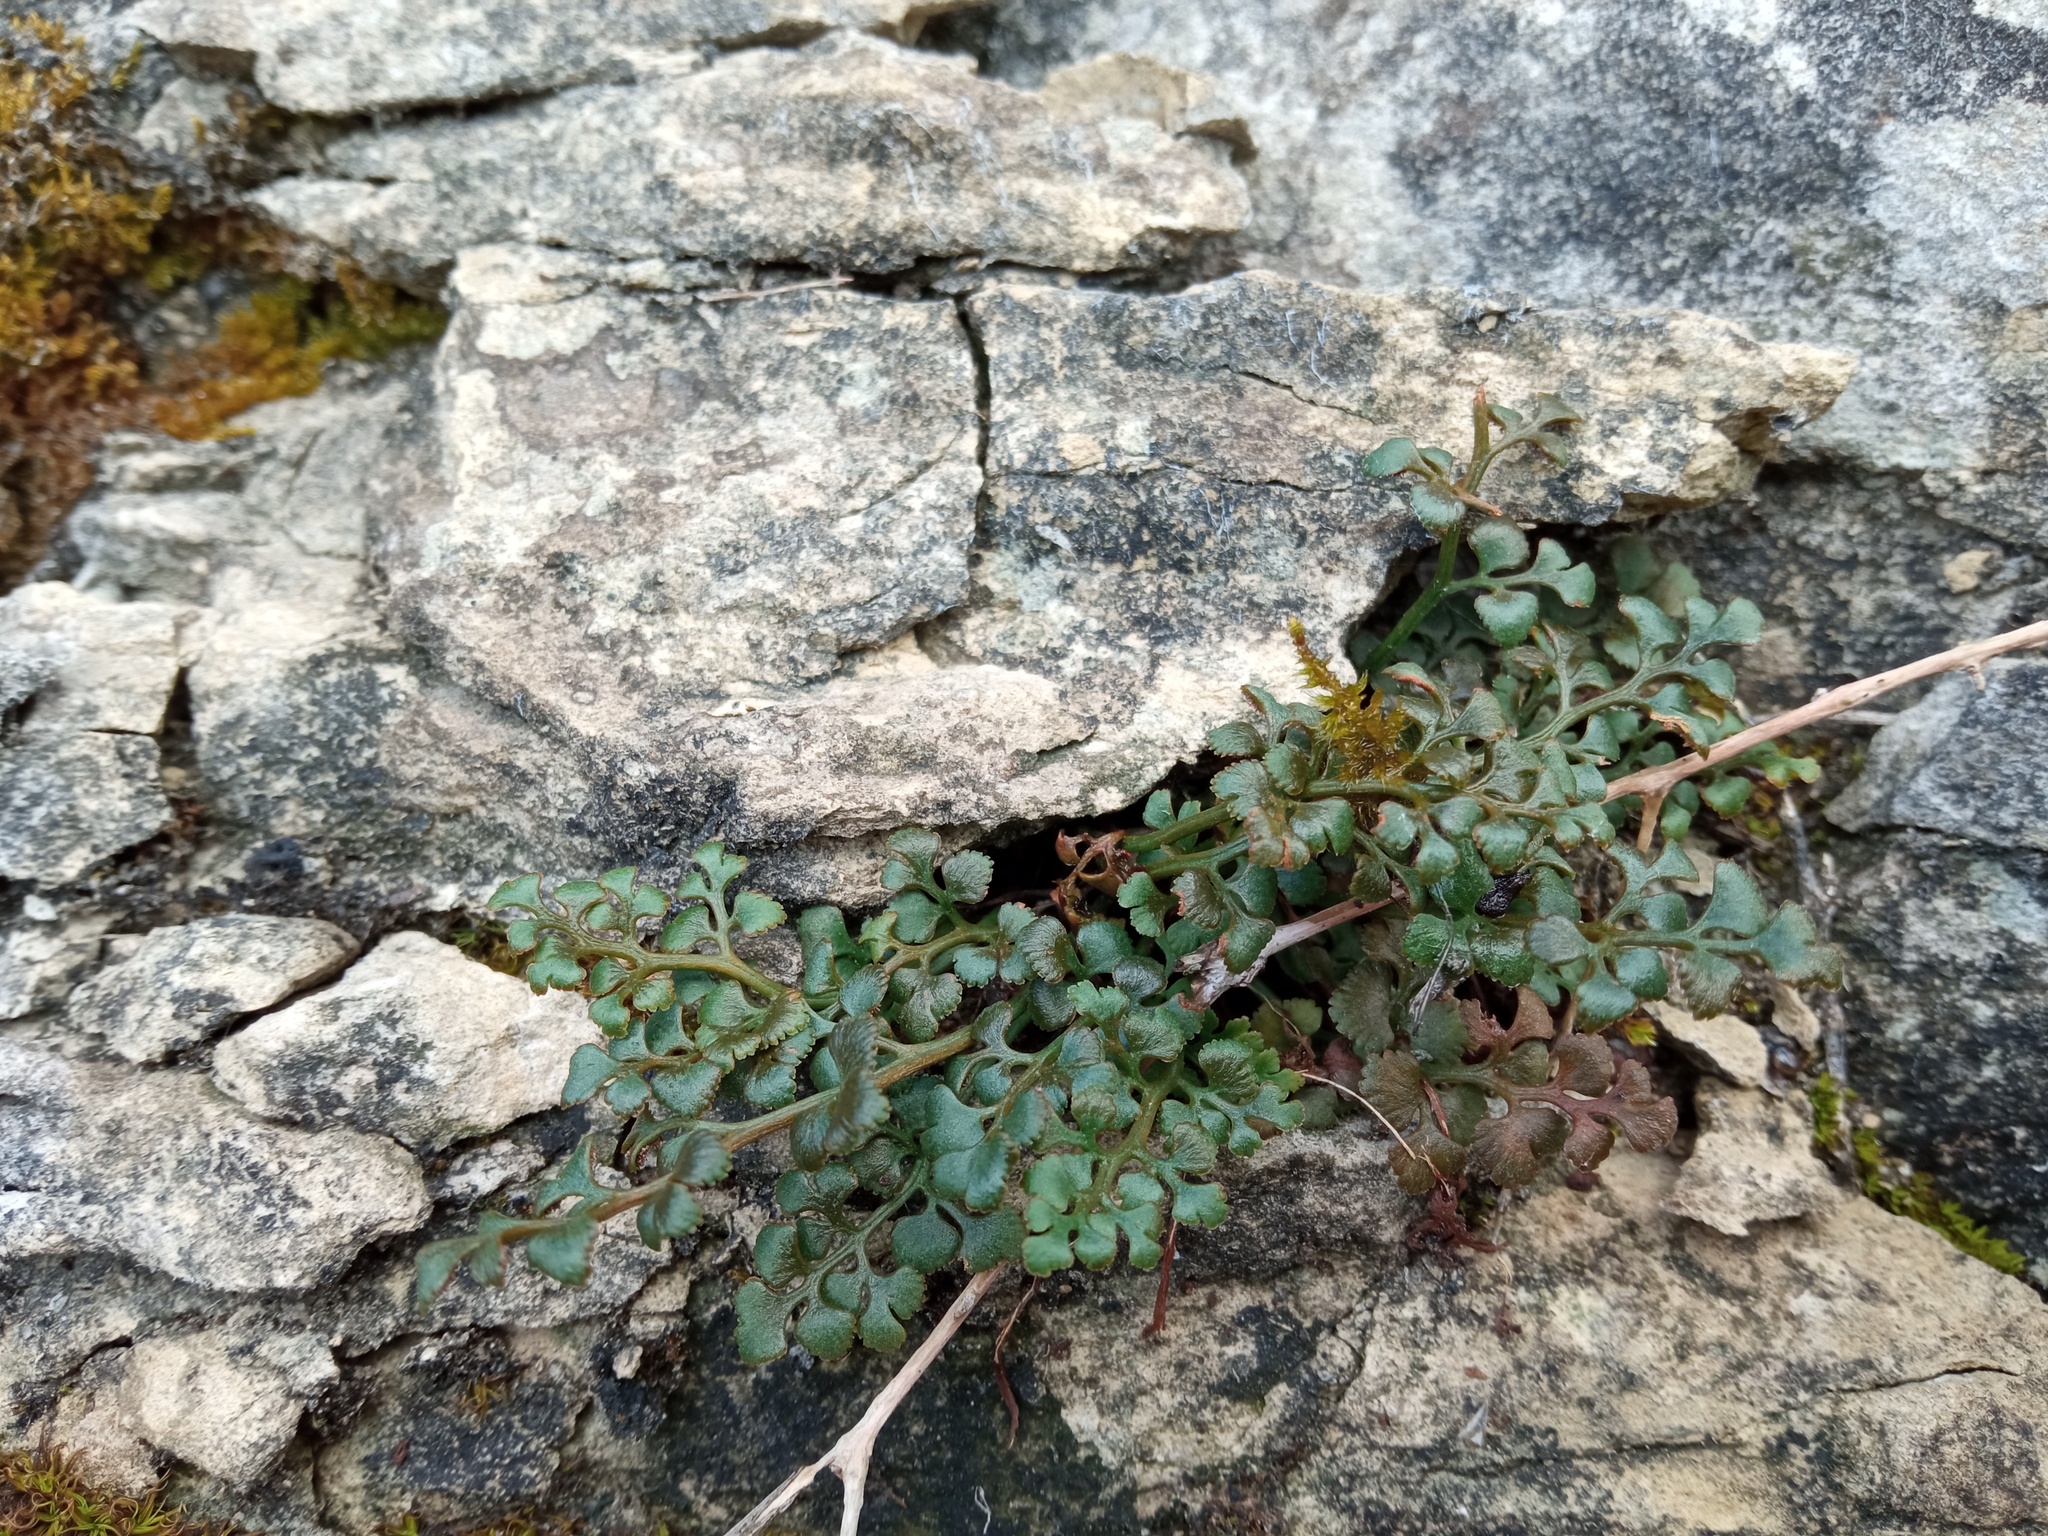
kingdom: Plantae
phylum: Tracheophyta
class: Polypodiopsida
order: Polypodiales
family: Aspleniaceae
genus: Asplenium
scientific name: Asplenium ruta-muraria
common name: Wall-rue
